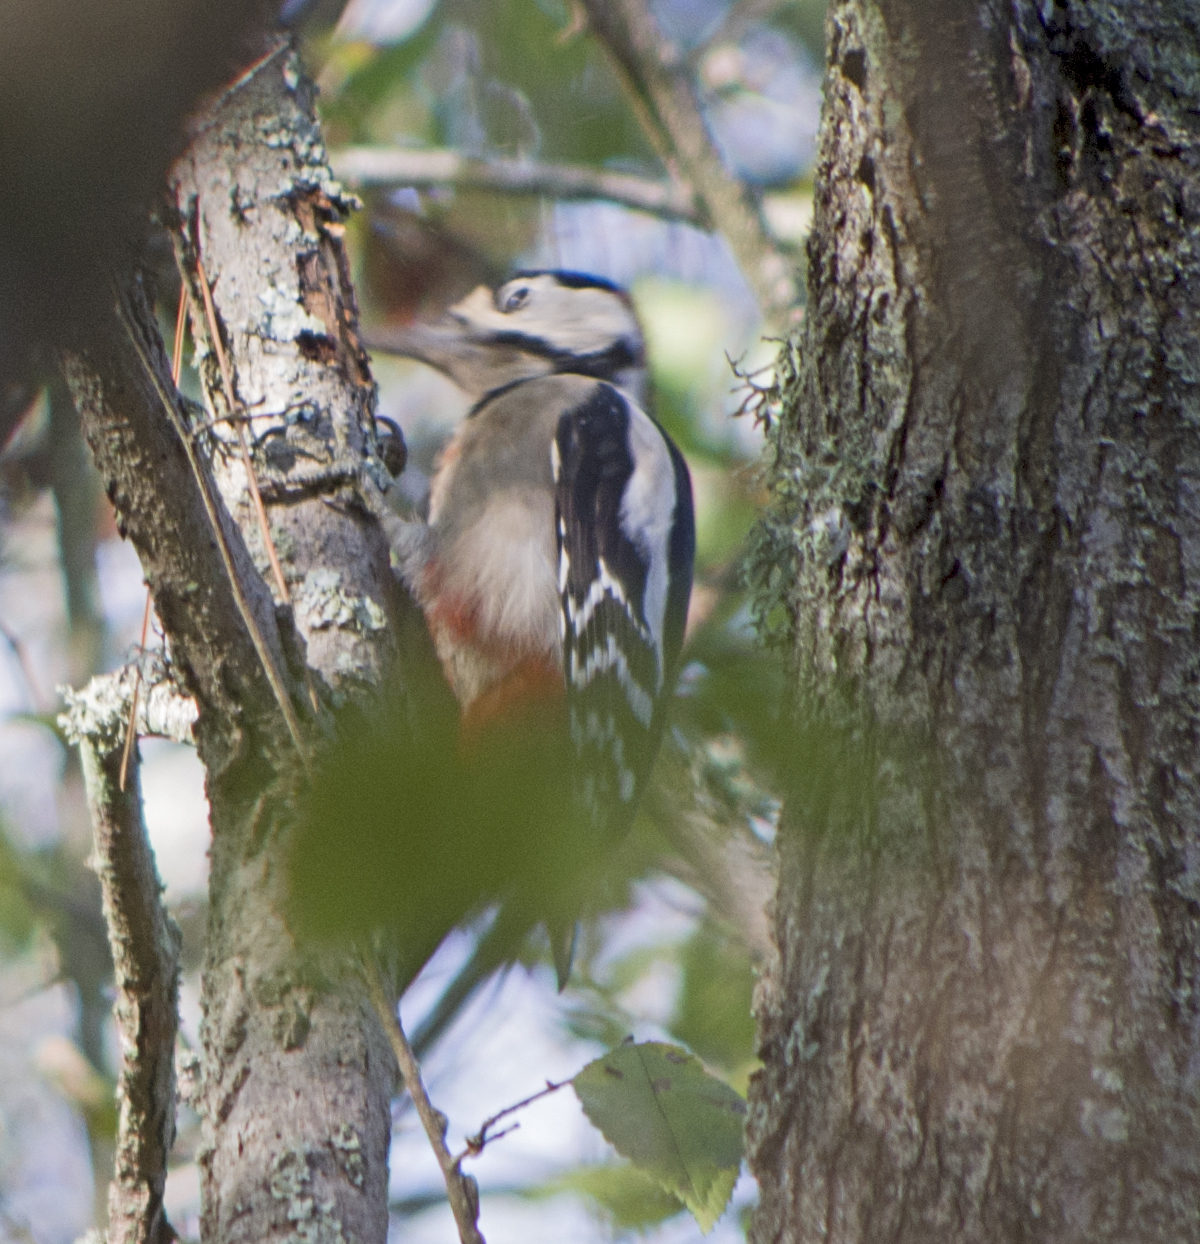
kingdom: Animalia
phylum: Chordata
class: Aves
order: Piciformes
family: Picidae
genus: Dendrocopos
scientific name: Dendrocopos major
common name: Great spotted woodpecker
